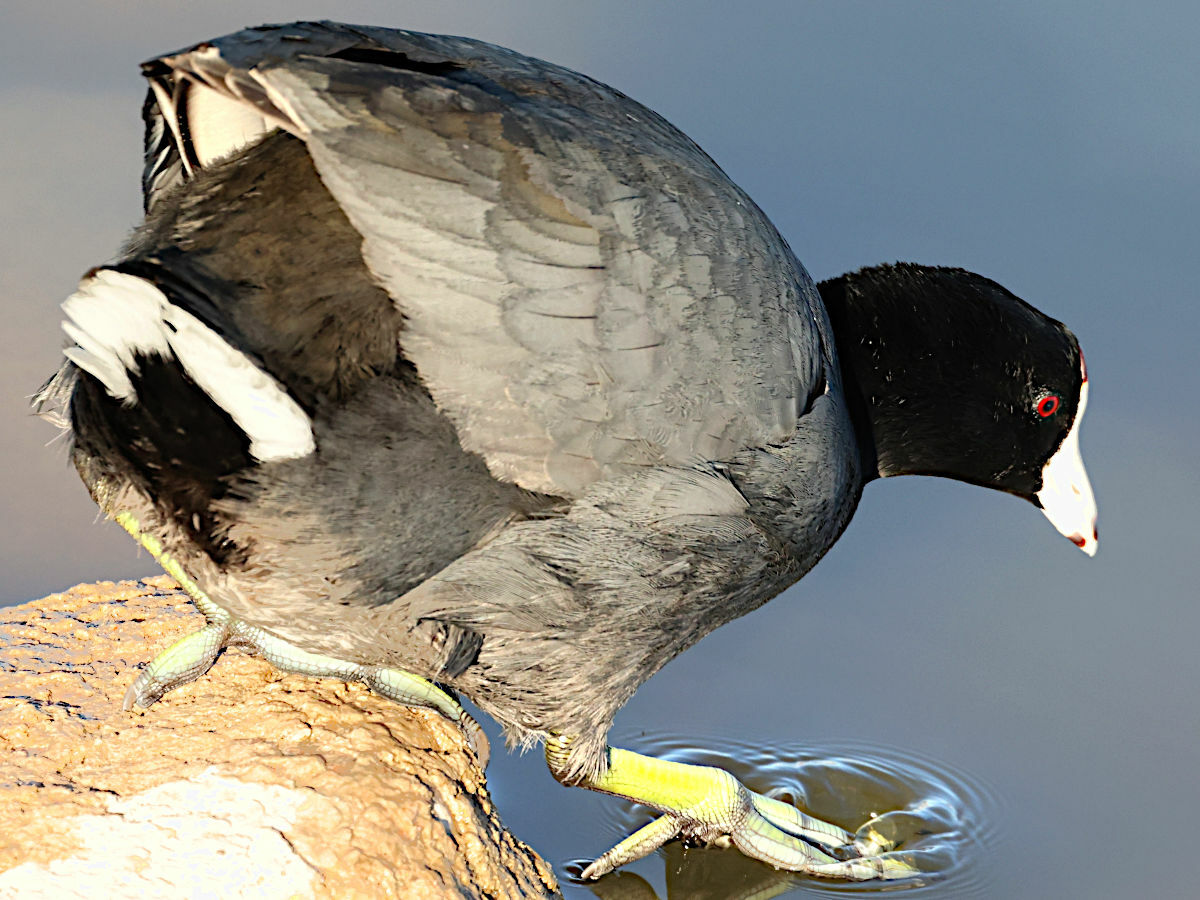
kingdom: Animalia
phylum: Chordata
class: Aves
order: Gruiformes
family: Rallidae
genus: Fulica
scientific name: Fulica americana
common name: American coot
